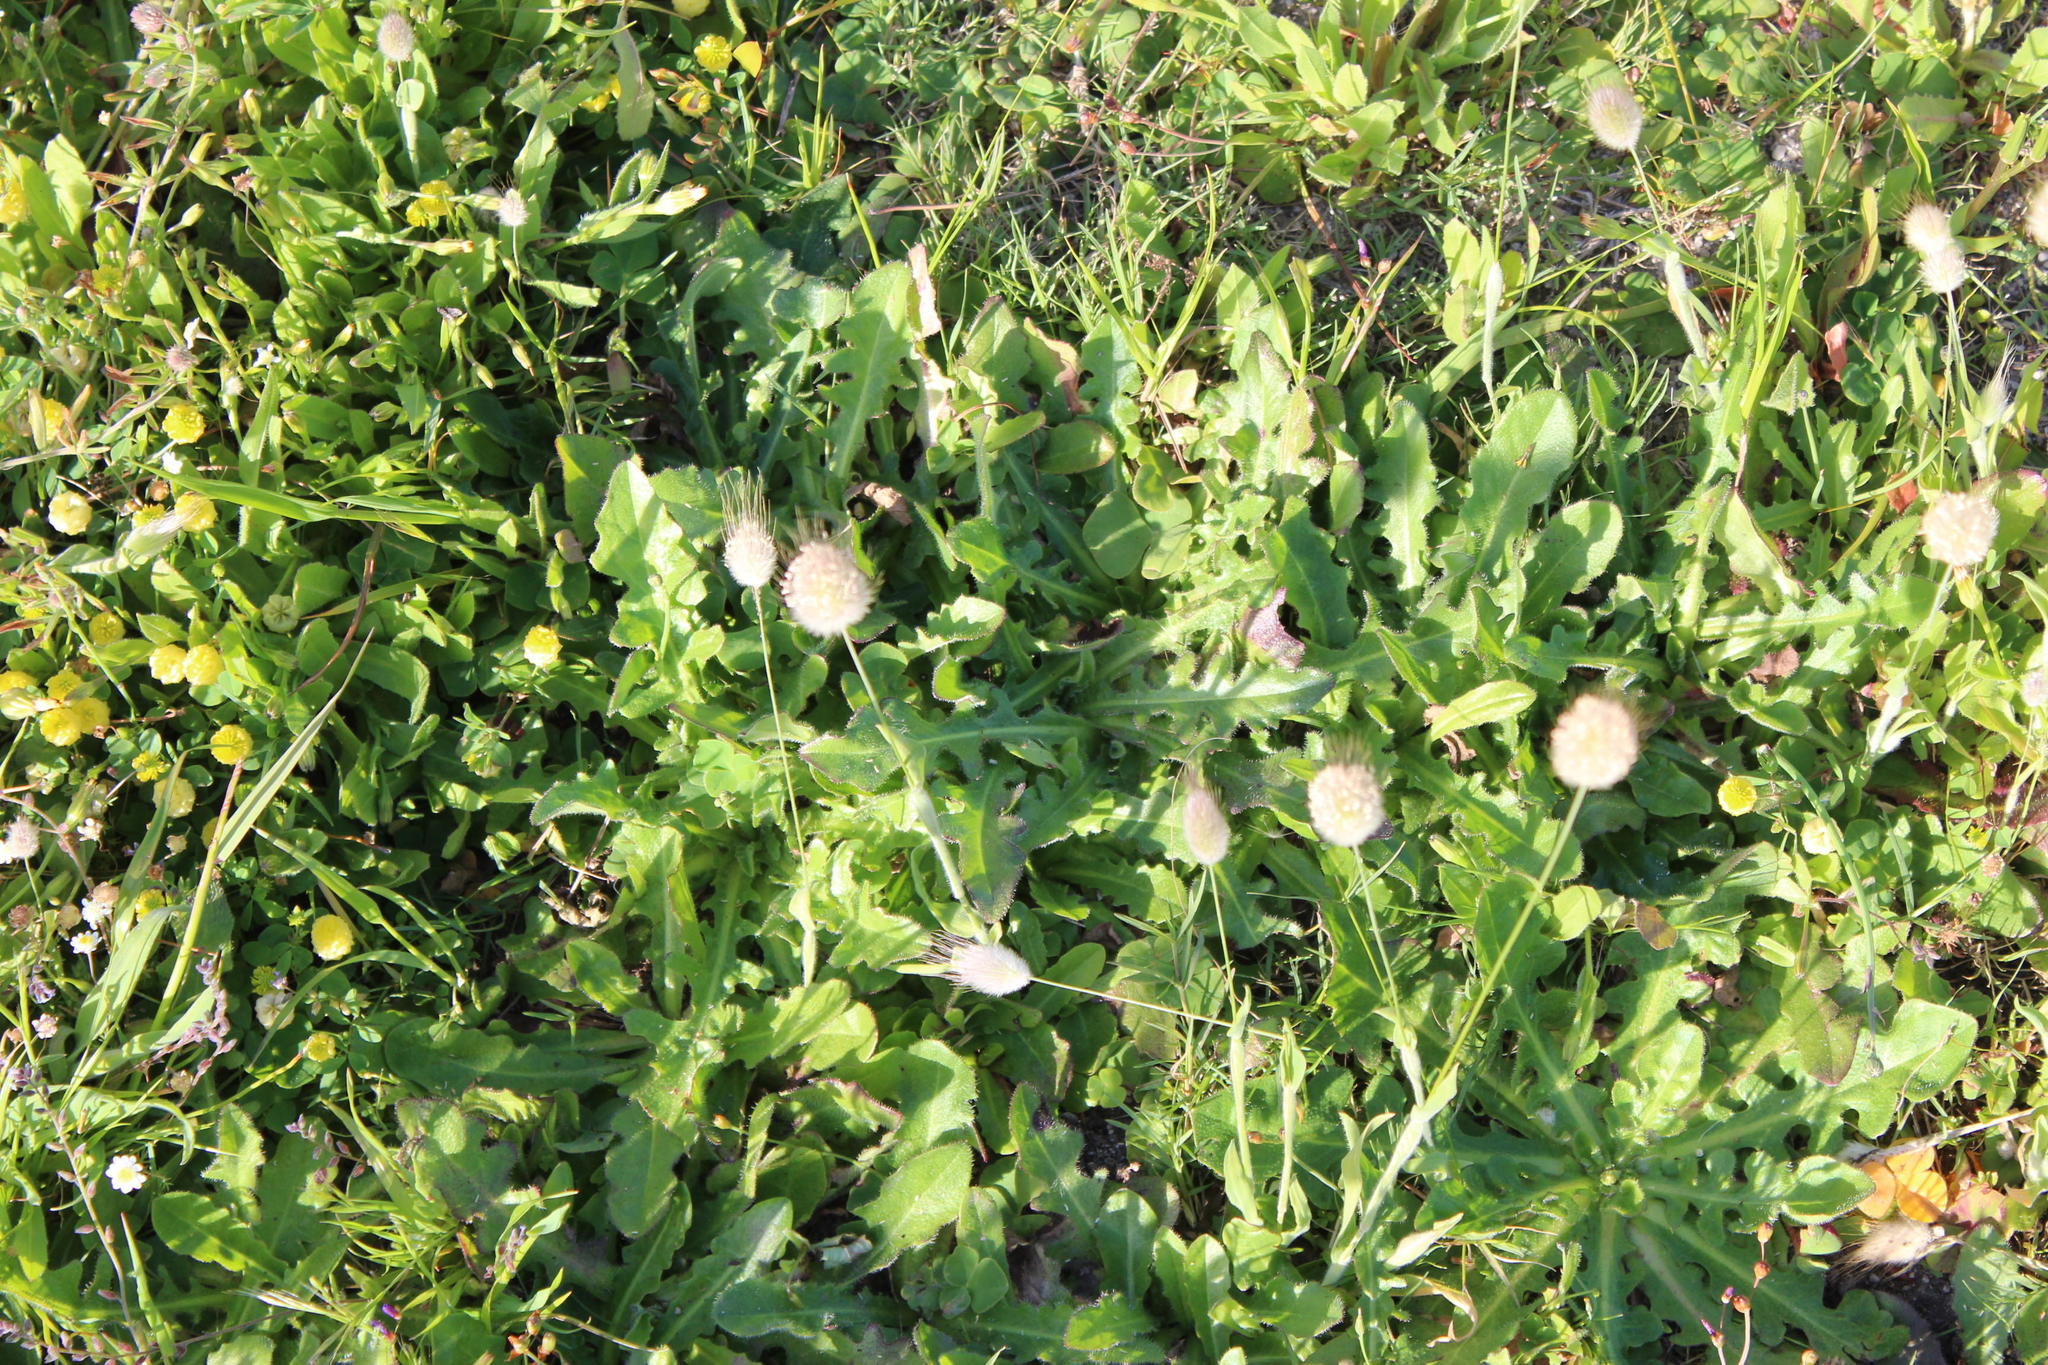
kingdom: Plantae
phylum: Tracheophyta
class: Magnoliopsida
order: Asterales
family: Asteraceae
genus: Hypochaeris
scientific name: Hypochaeris radicata
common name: Flatweed
